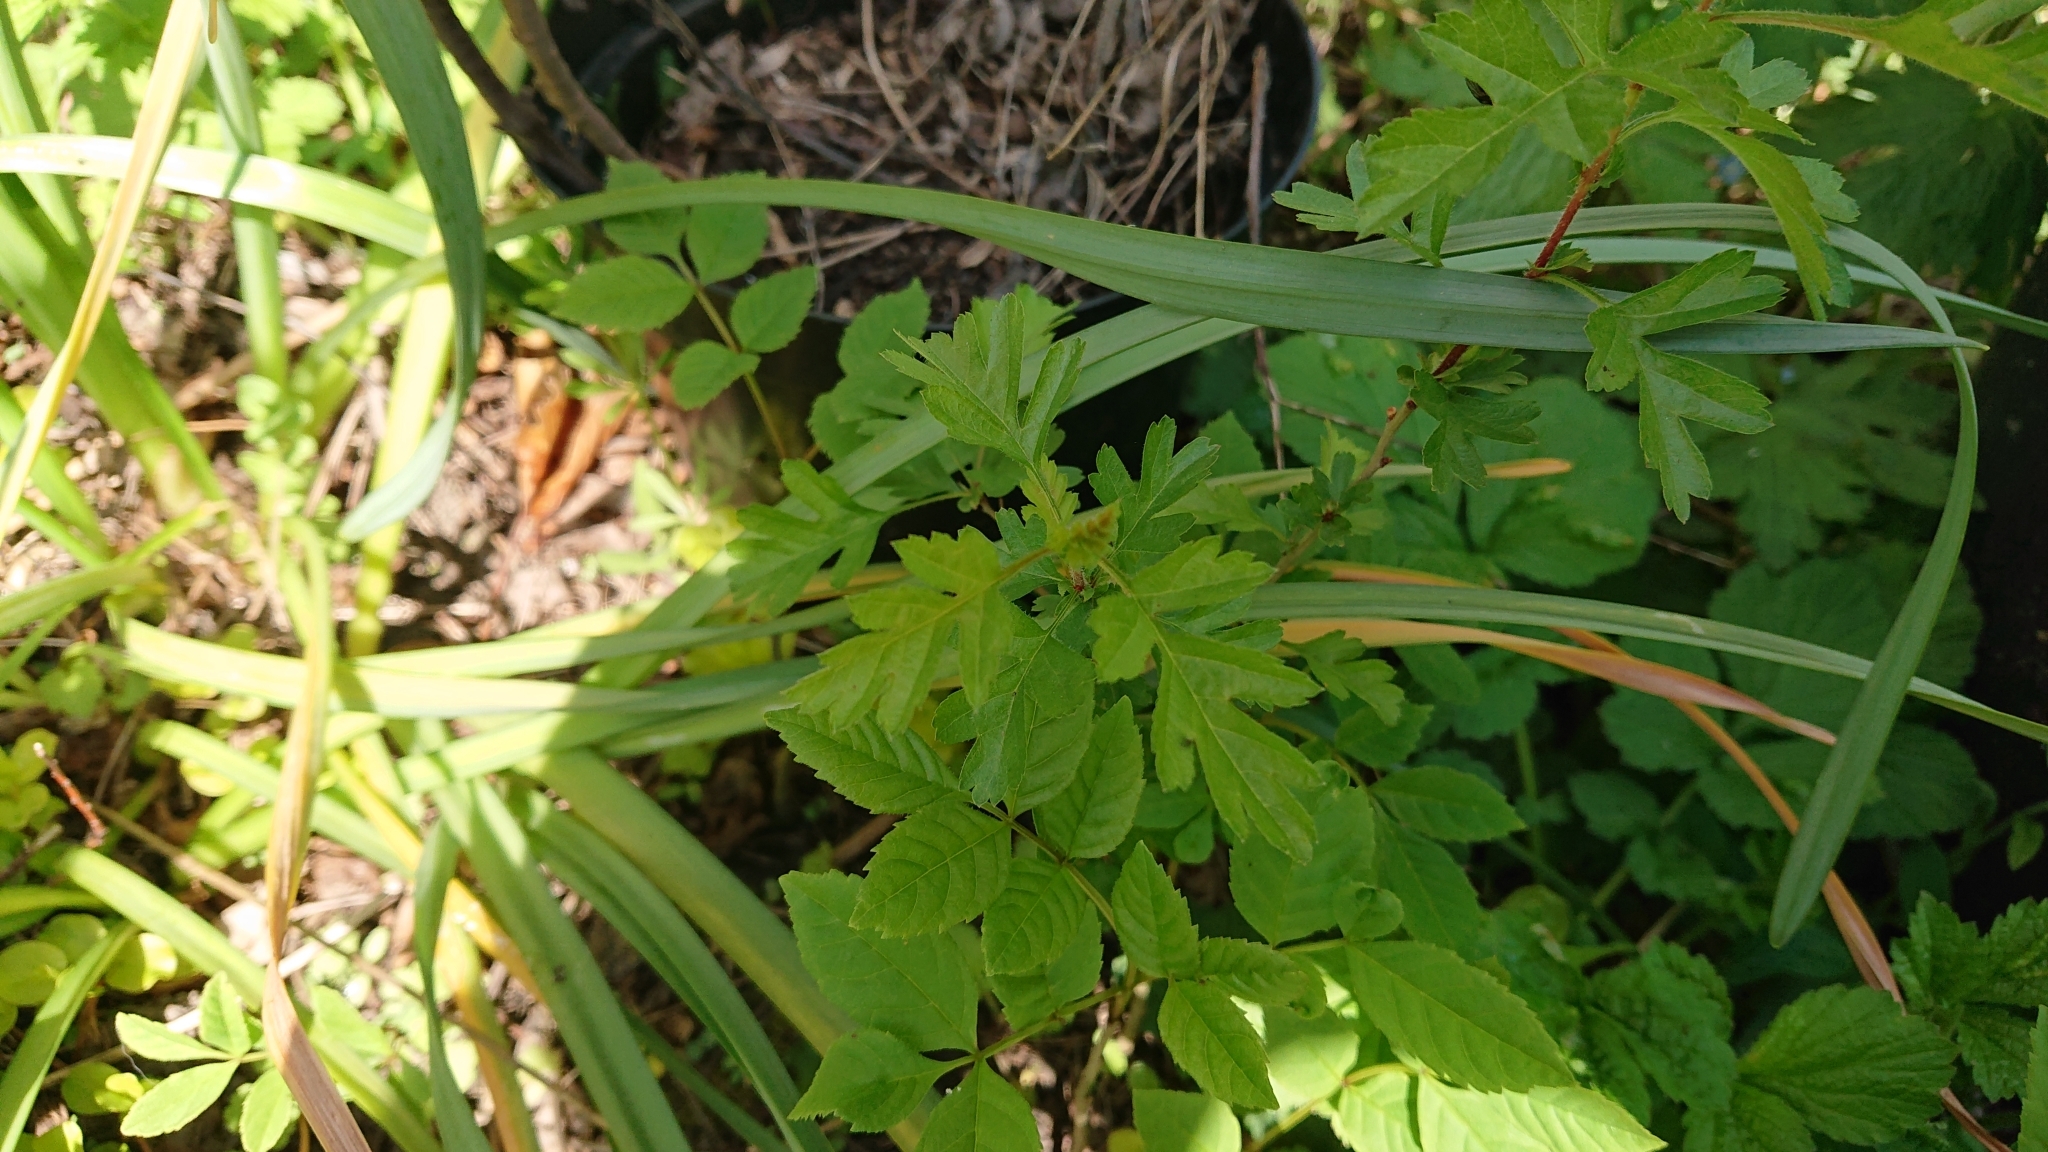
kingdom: Plantae
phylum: Tracheophyta
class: Magnoliopsida
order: Rosales
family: Rosaceae
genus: Crataegus
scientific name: Crataegus monogyna
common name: Hawthorn
